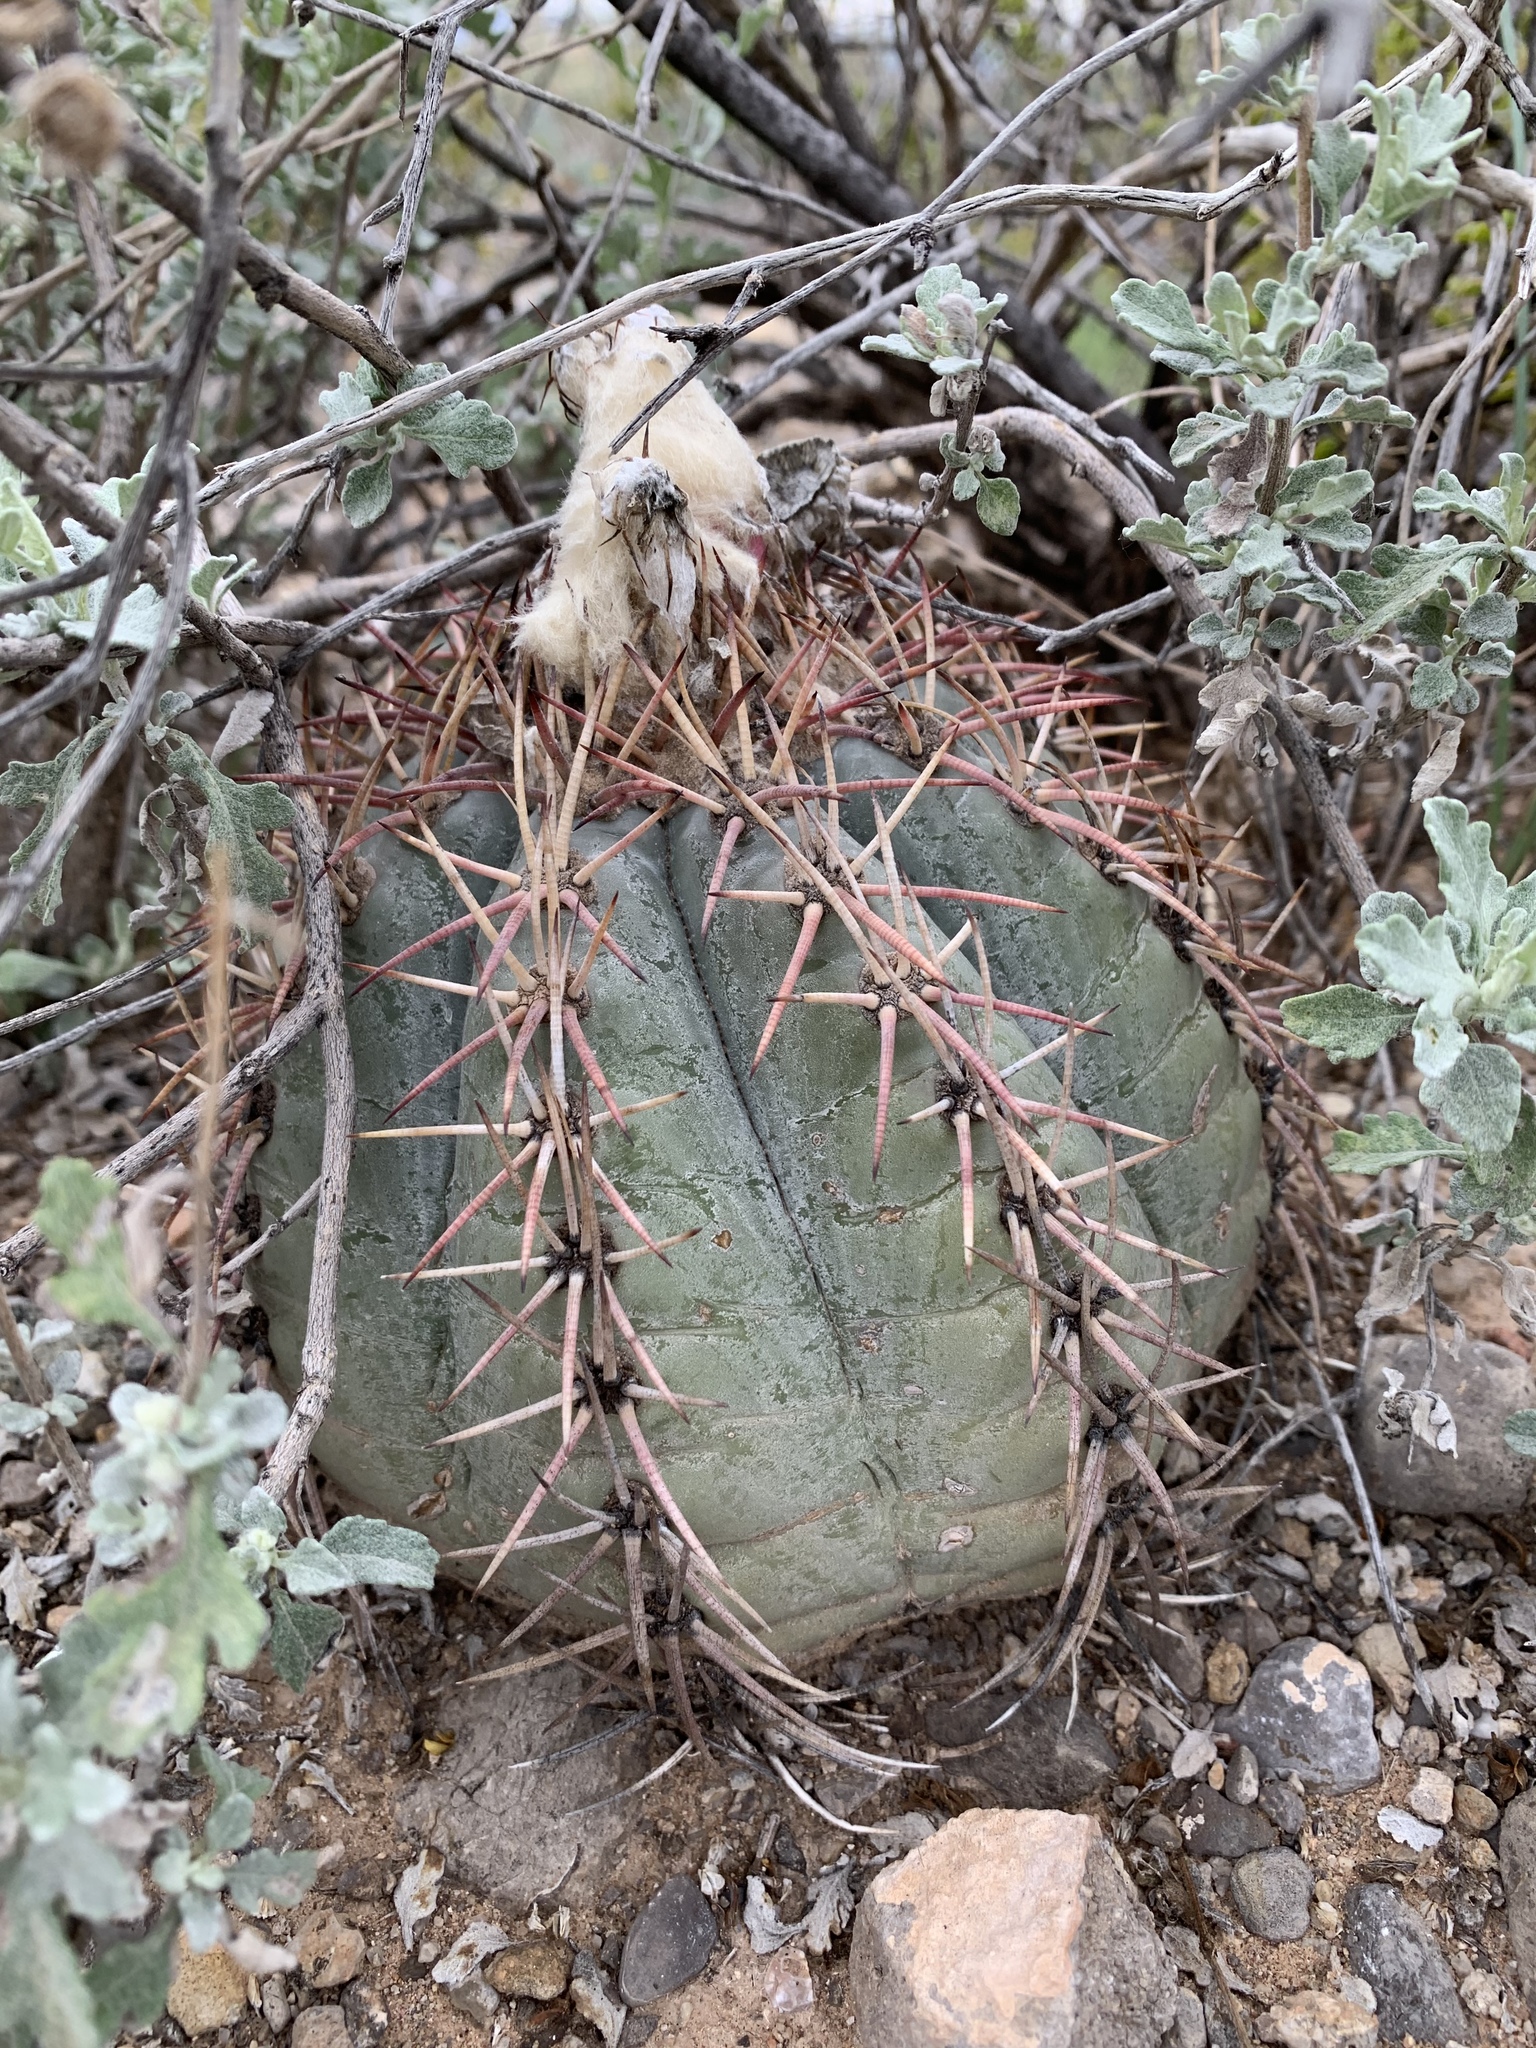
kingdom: Plantae
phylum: Tracheophyta
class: Magnoliopsida
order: Caryophyllales
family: Cactaceae
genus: Echinocactus
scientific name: Echinocactus horizonthalonius
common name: Devilshead
